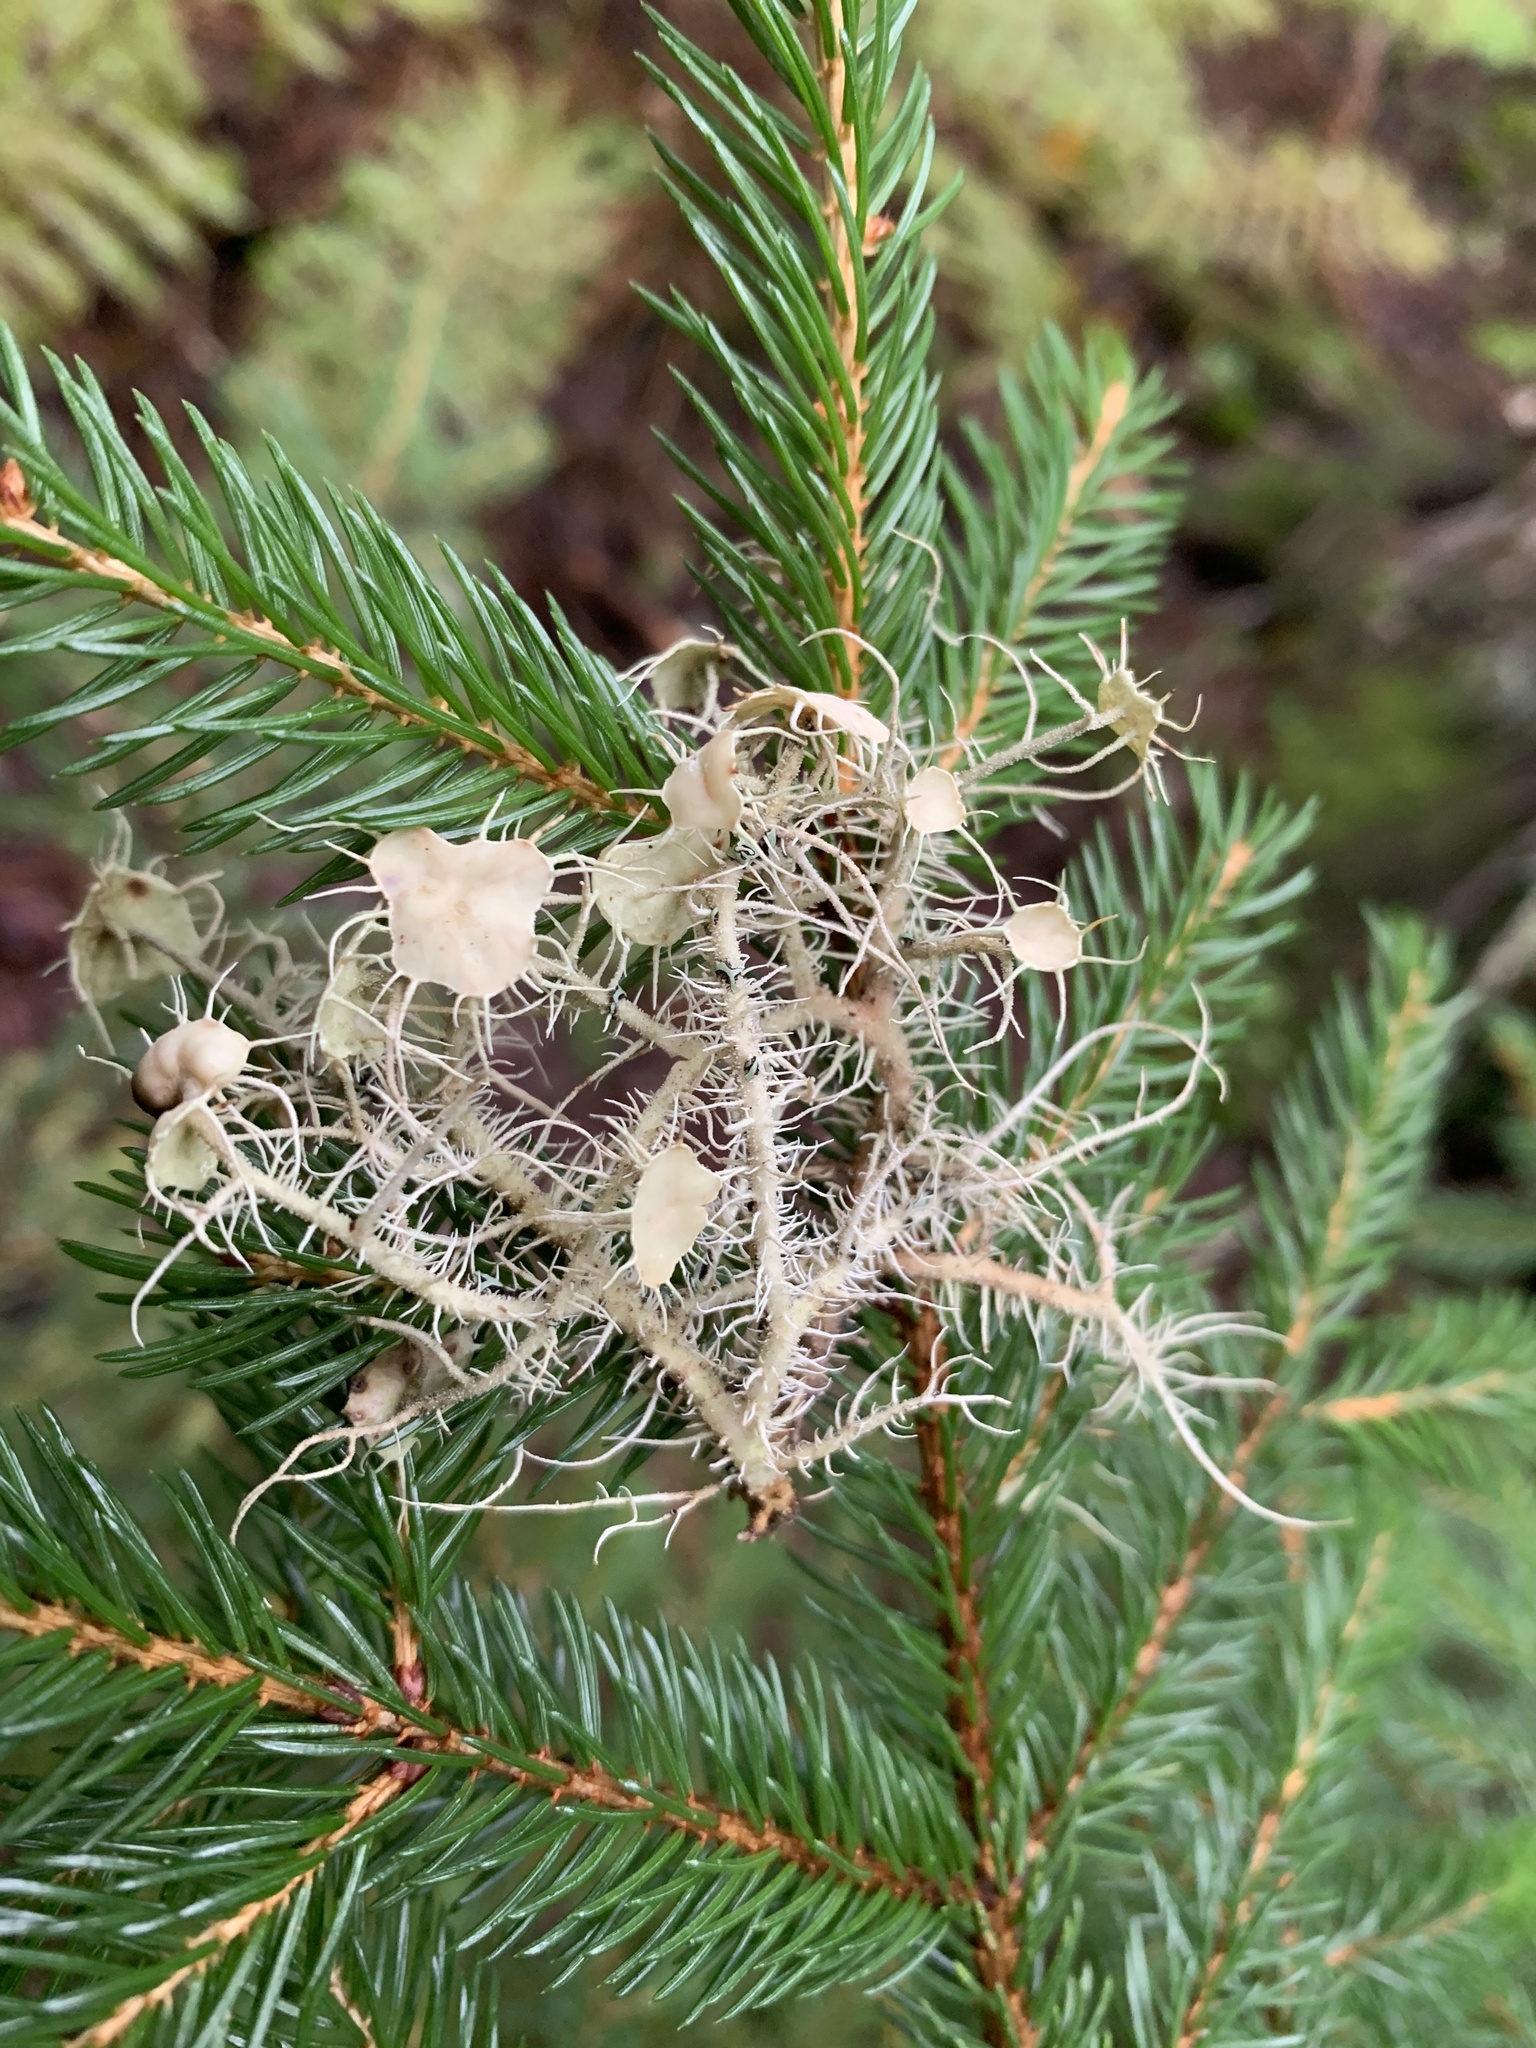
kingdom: Fungi
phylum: Ascomycota
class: Lecanoromycetes
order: Lecanorales
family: Parmeliaceae
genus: Usnea
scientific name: Usnea strigosa
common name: Bushy beard lichen
